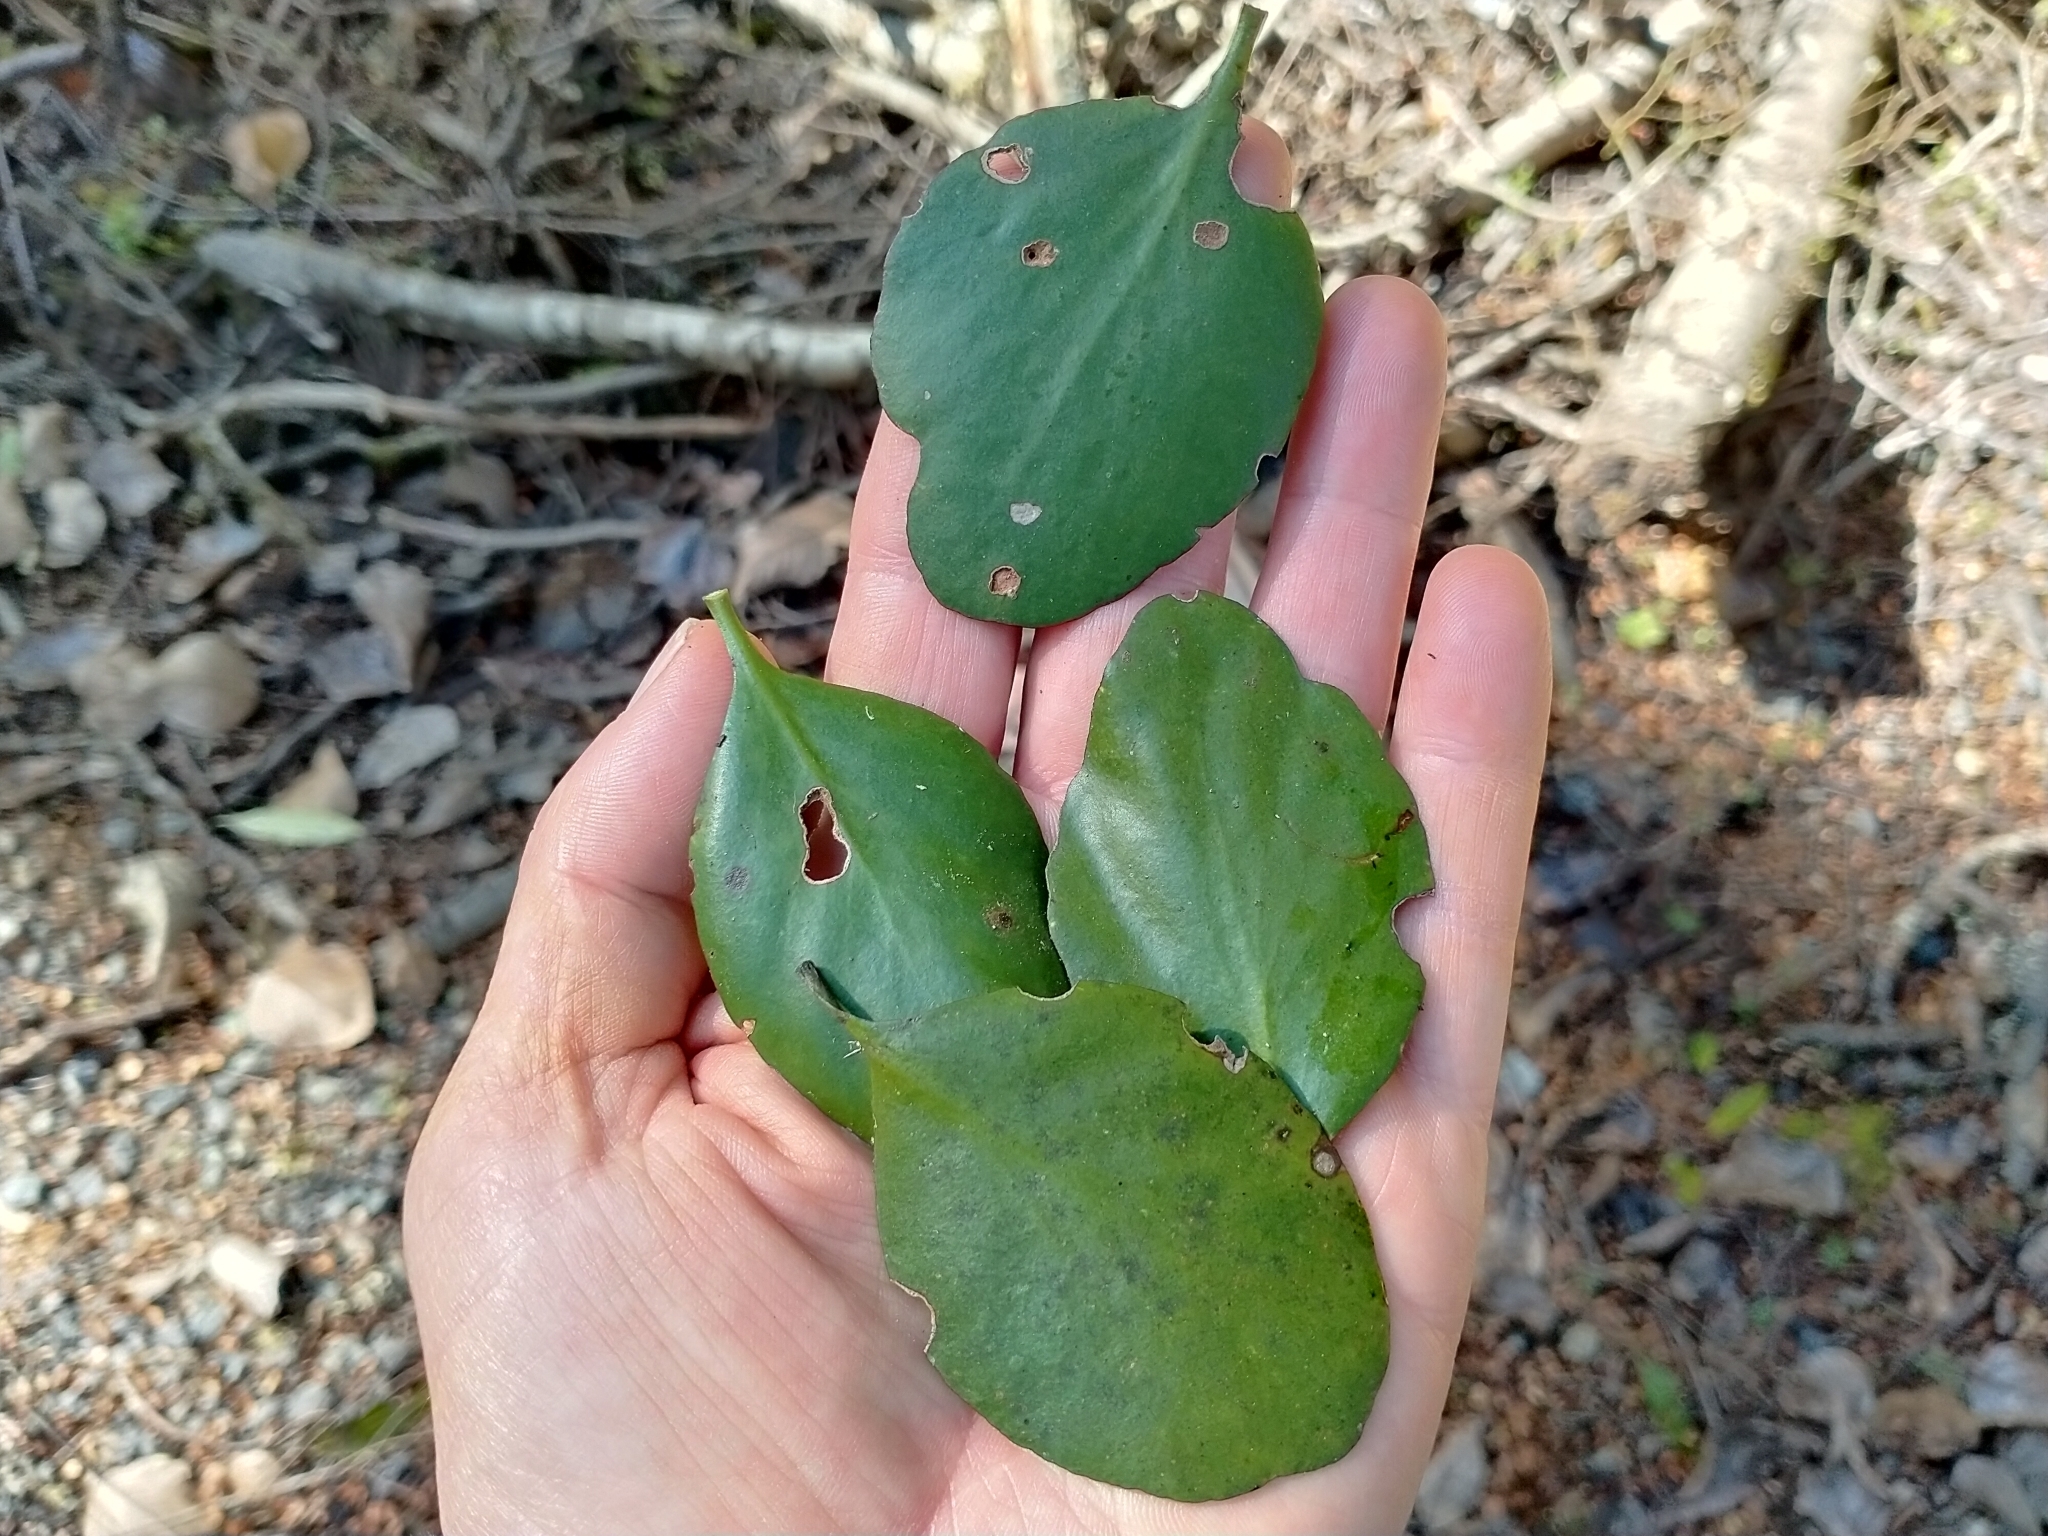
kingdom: Plantae
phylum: Tracheophyta
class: Magnoliopsida
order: Santalales
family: Loranthaceae
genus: Peraxilla
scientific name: Peraxilla colensoi
